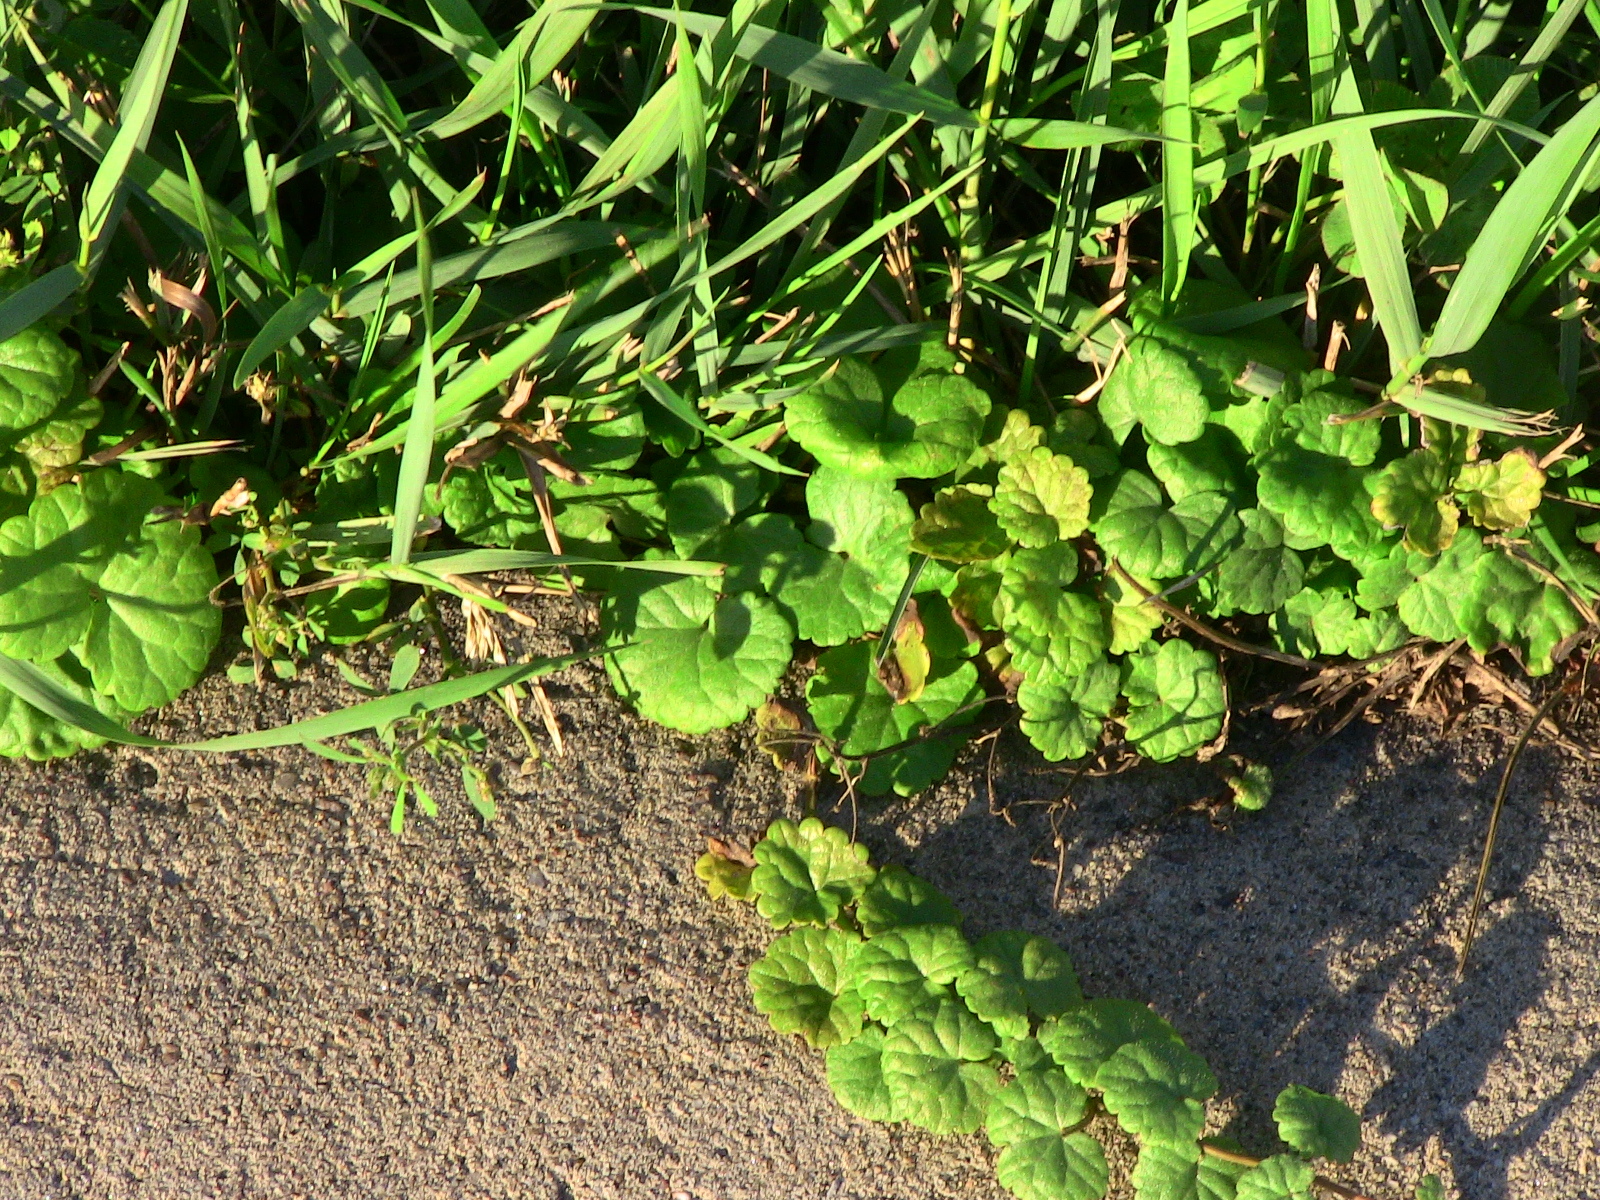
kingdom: Plantae
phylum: Tracheophyta
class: Magnoliopsida
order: Lamiales
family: Lamiaceae
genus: Glechoma
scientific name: Glechoma hederacea
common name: Ground ivy
